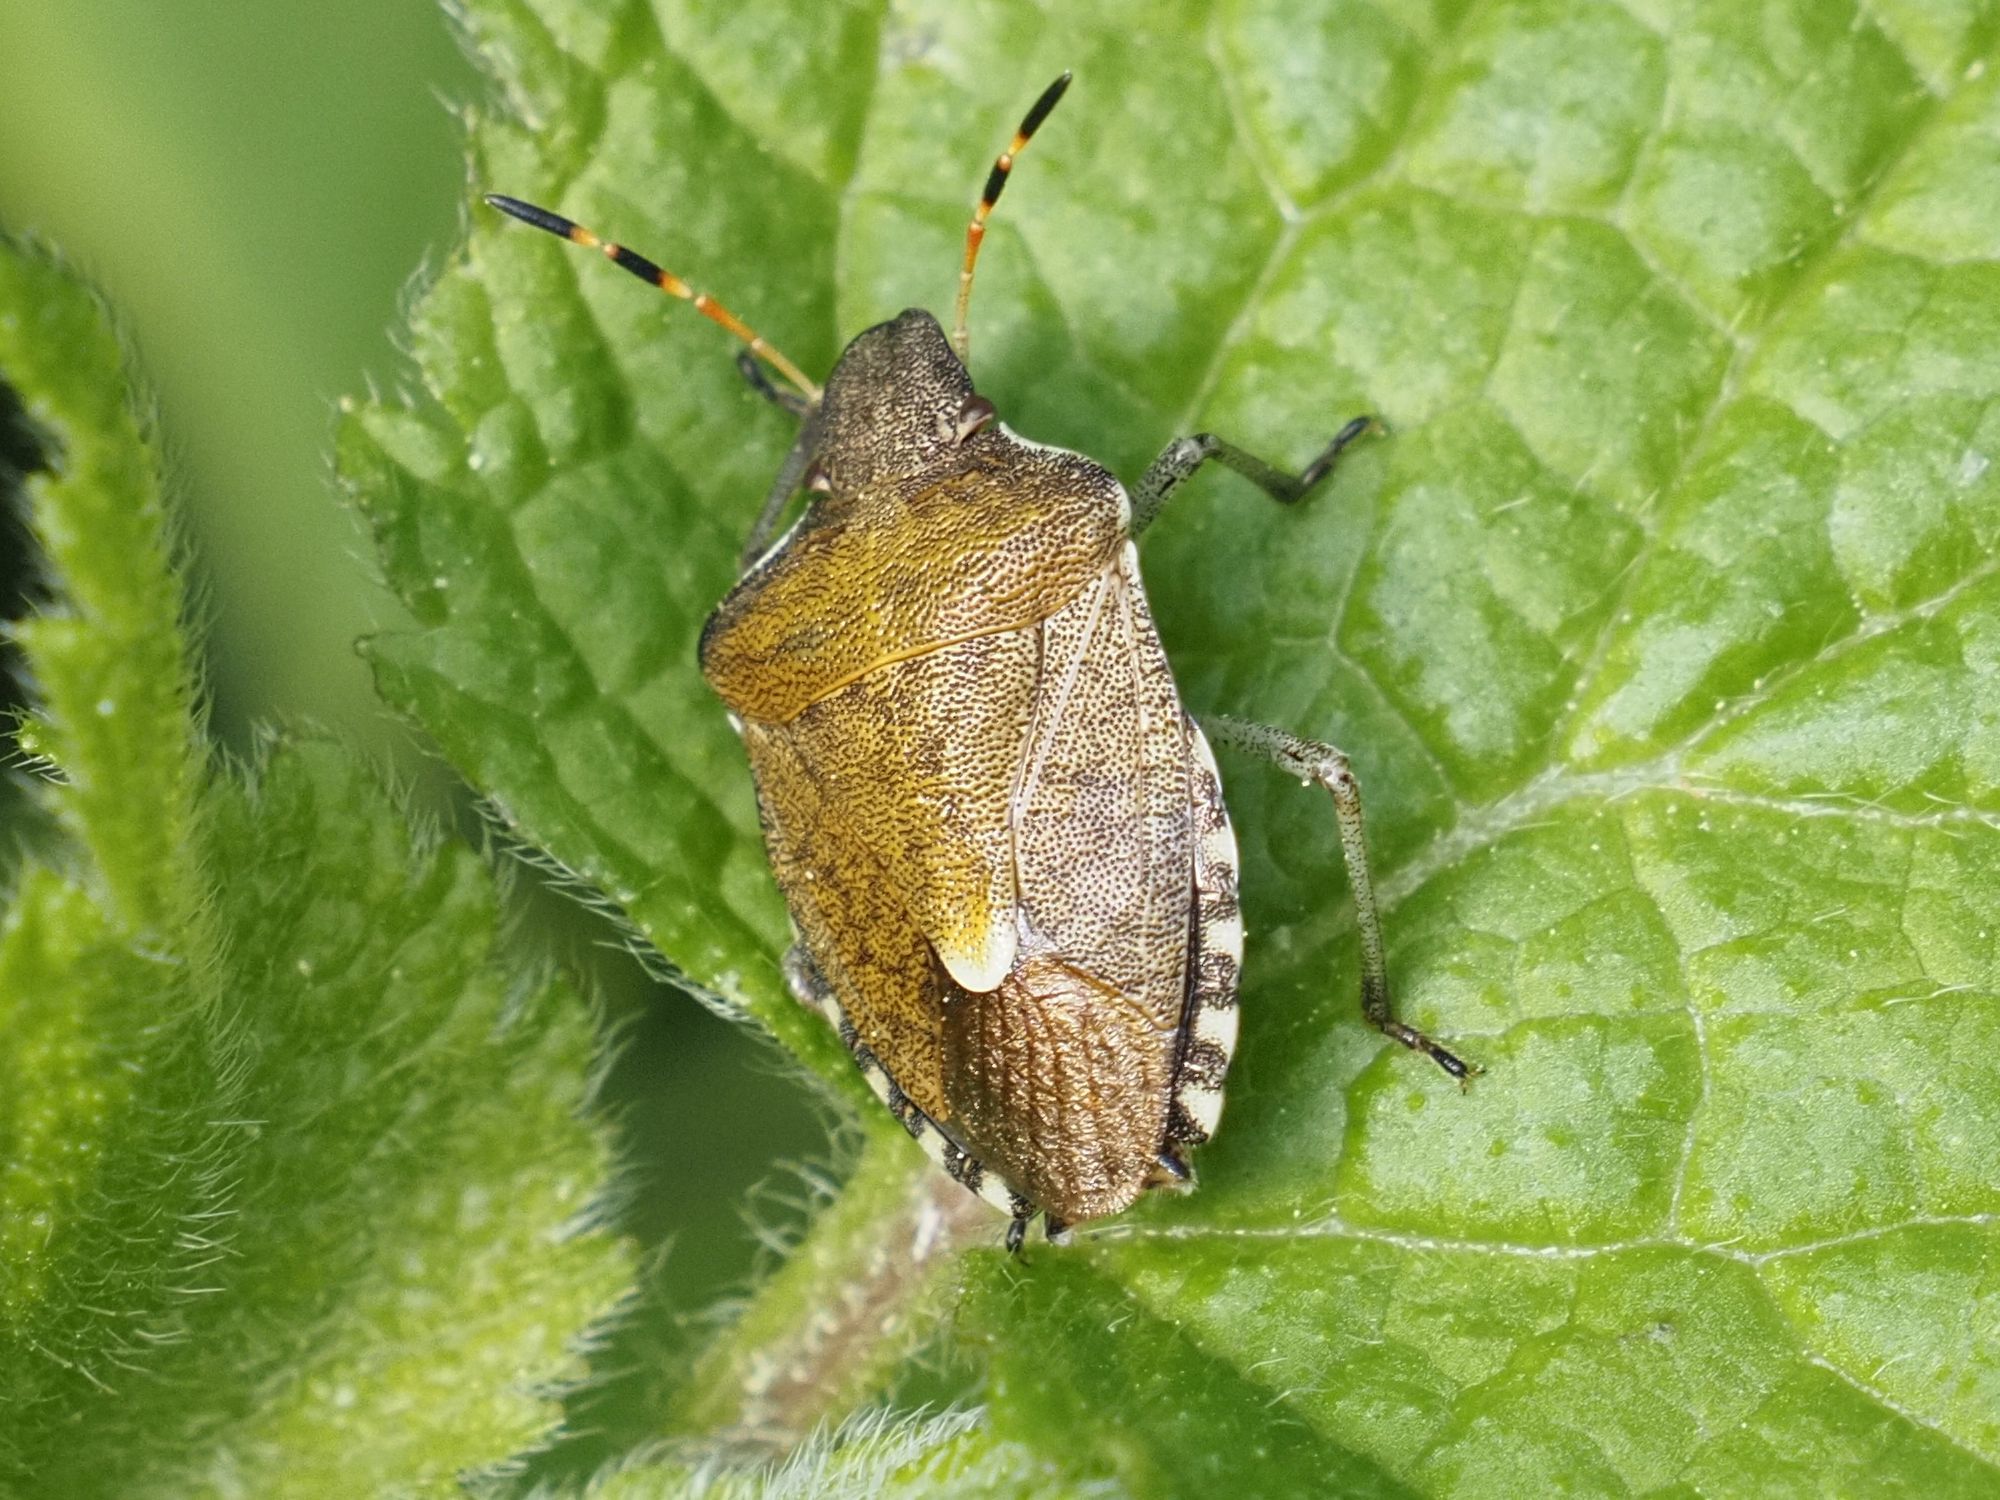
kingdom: Animalia
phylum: Arthropoda
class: Insecta
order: Hemiptera
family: Pentatomidae
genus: Holcostethus
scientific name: Holcostethus strictus
